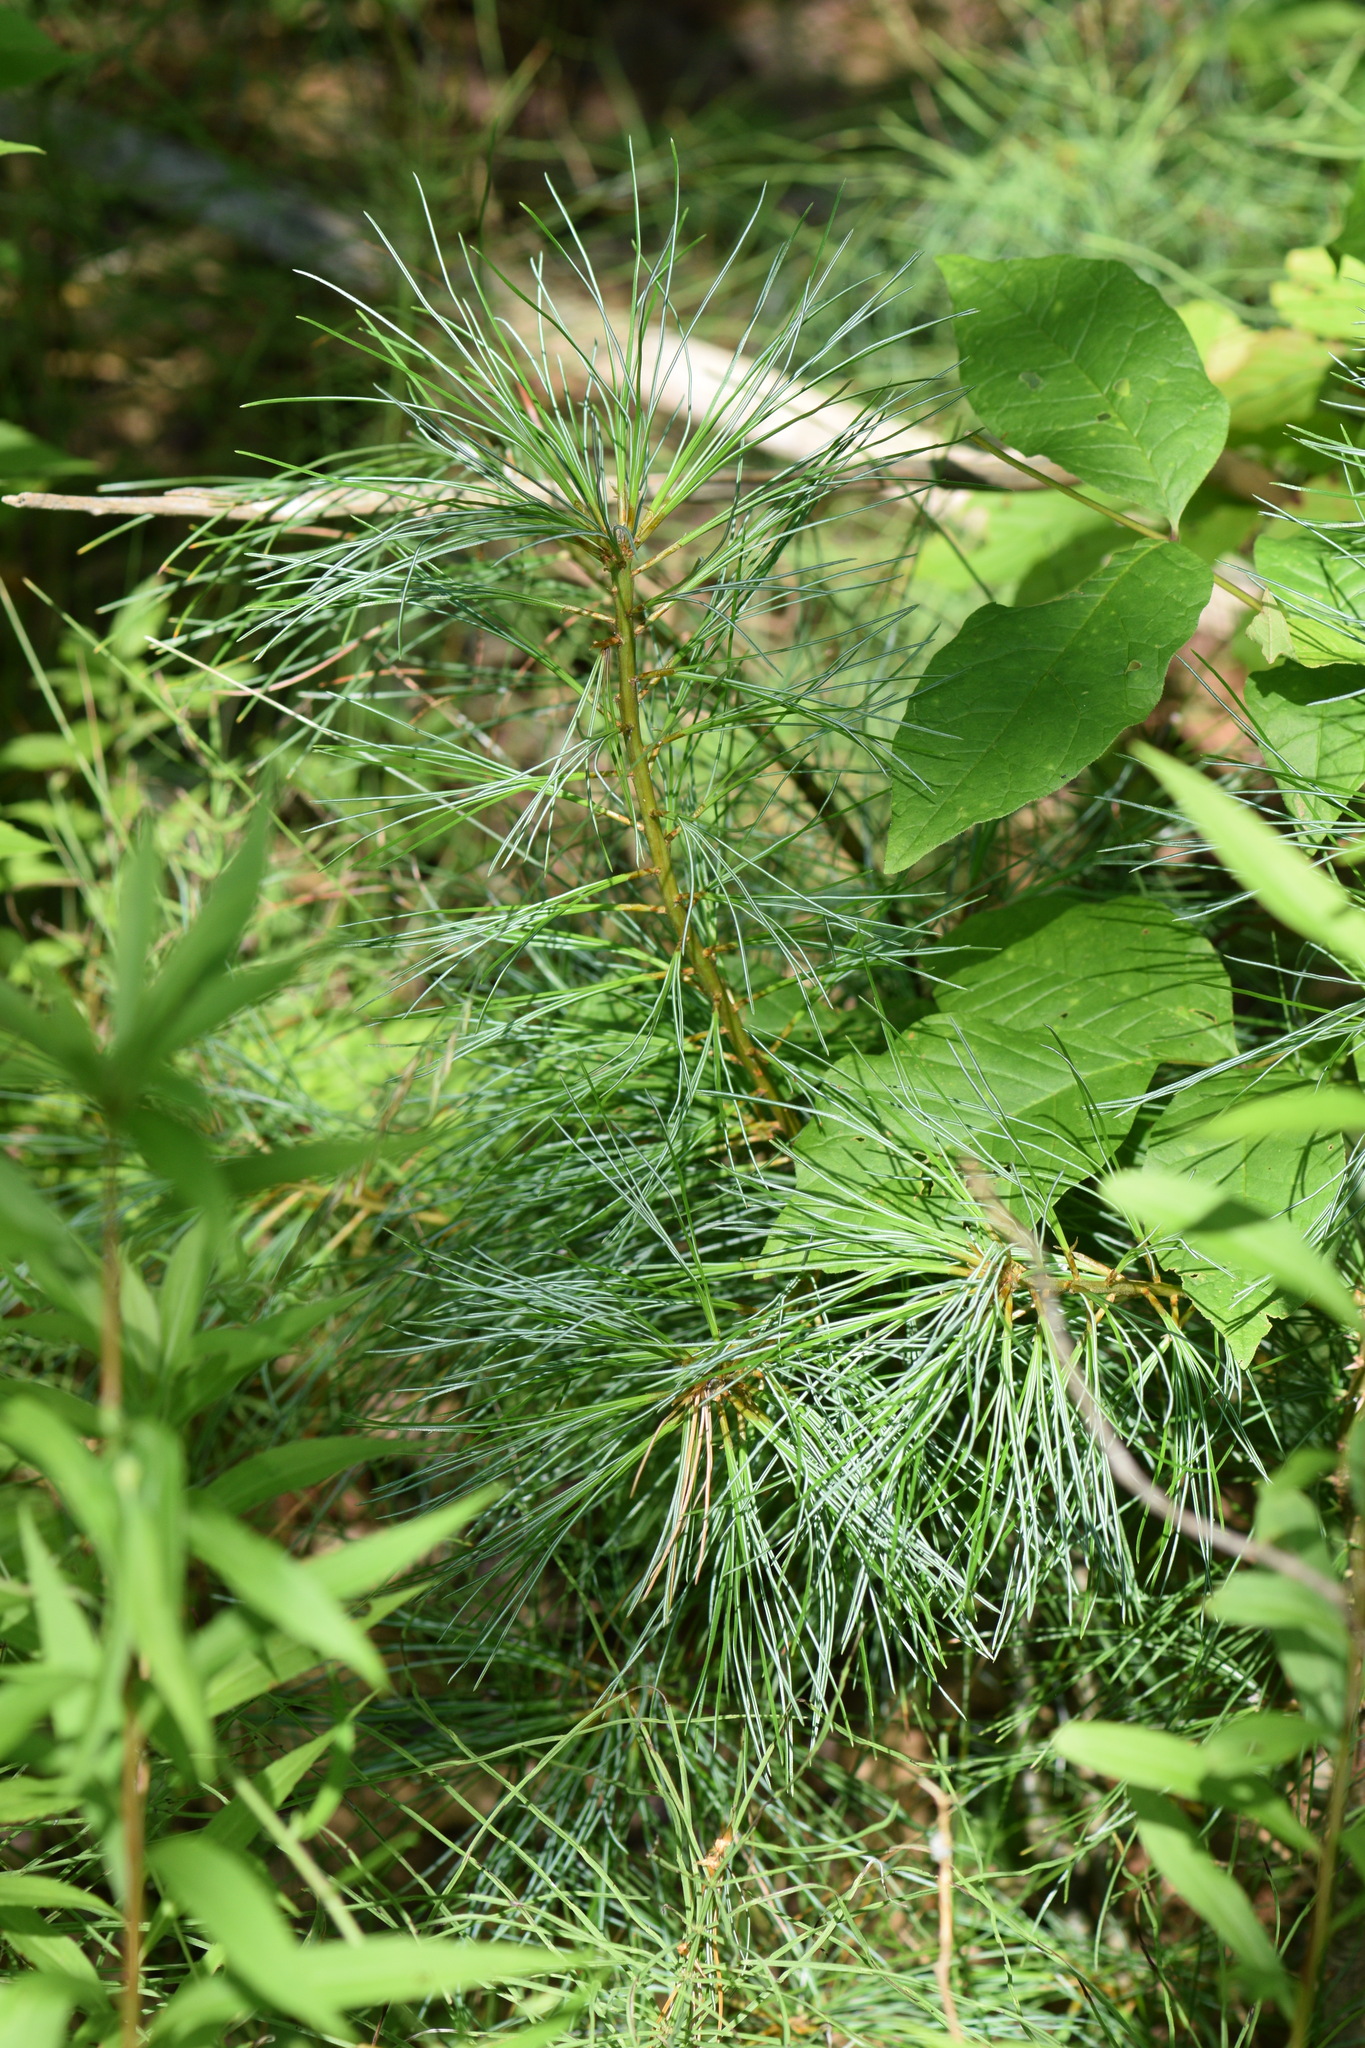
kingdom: Plantae
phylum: Tracheophyta
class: Pinopsida
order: Pinales
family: Pinaceae
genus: Pinus
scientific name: Pinus strobus
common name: Weymouth pine
